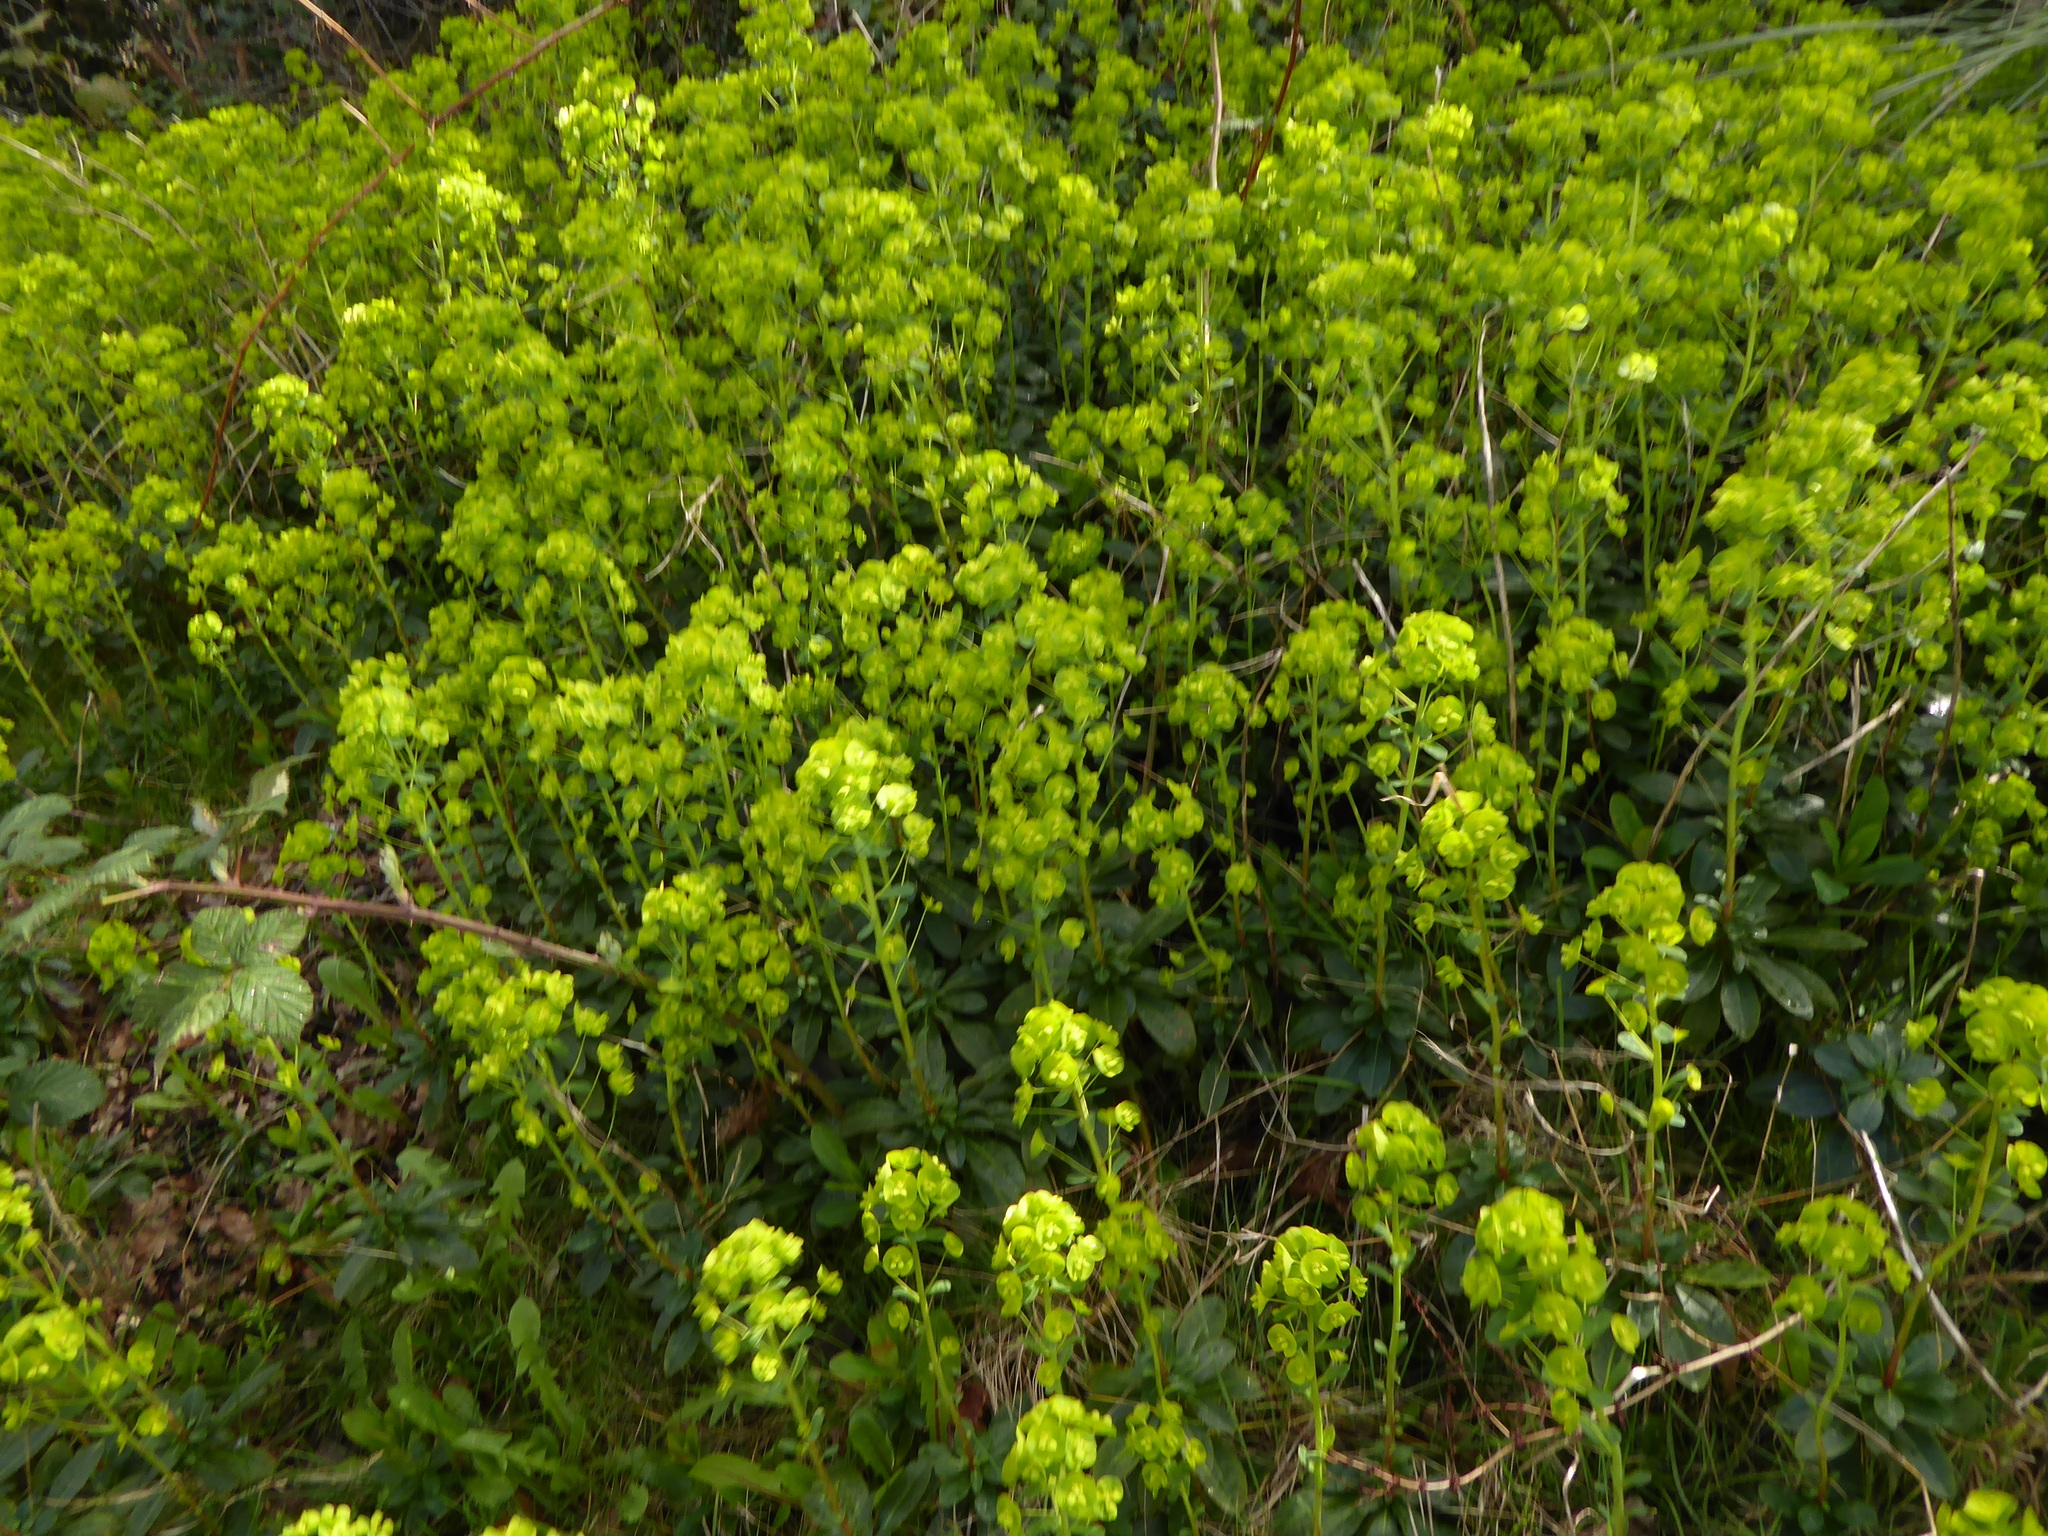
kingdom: Plantae
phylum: Tracheophyta
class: Magnoliopsida
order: Malpighiales
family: Euphorbiaceae
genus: Euphorbia
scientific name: Euphorbia amygdaloides
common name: Wood spurge
